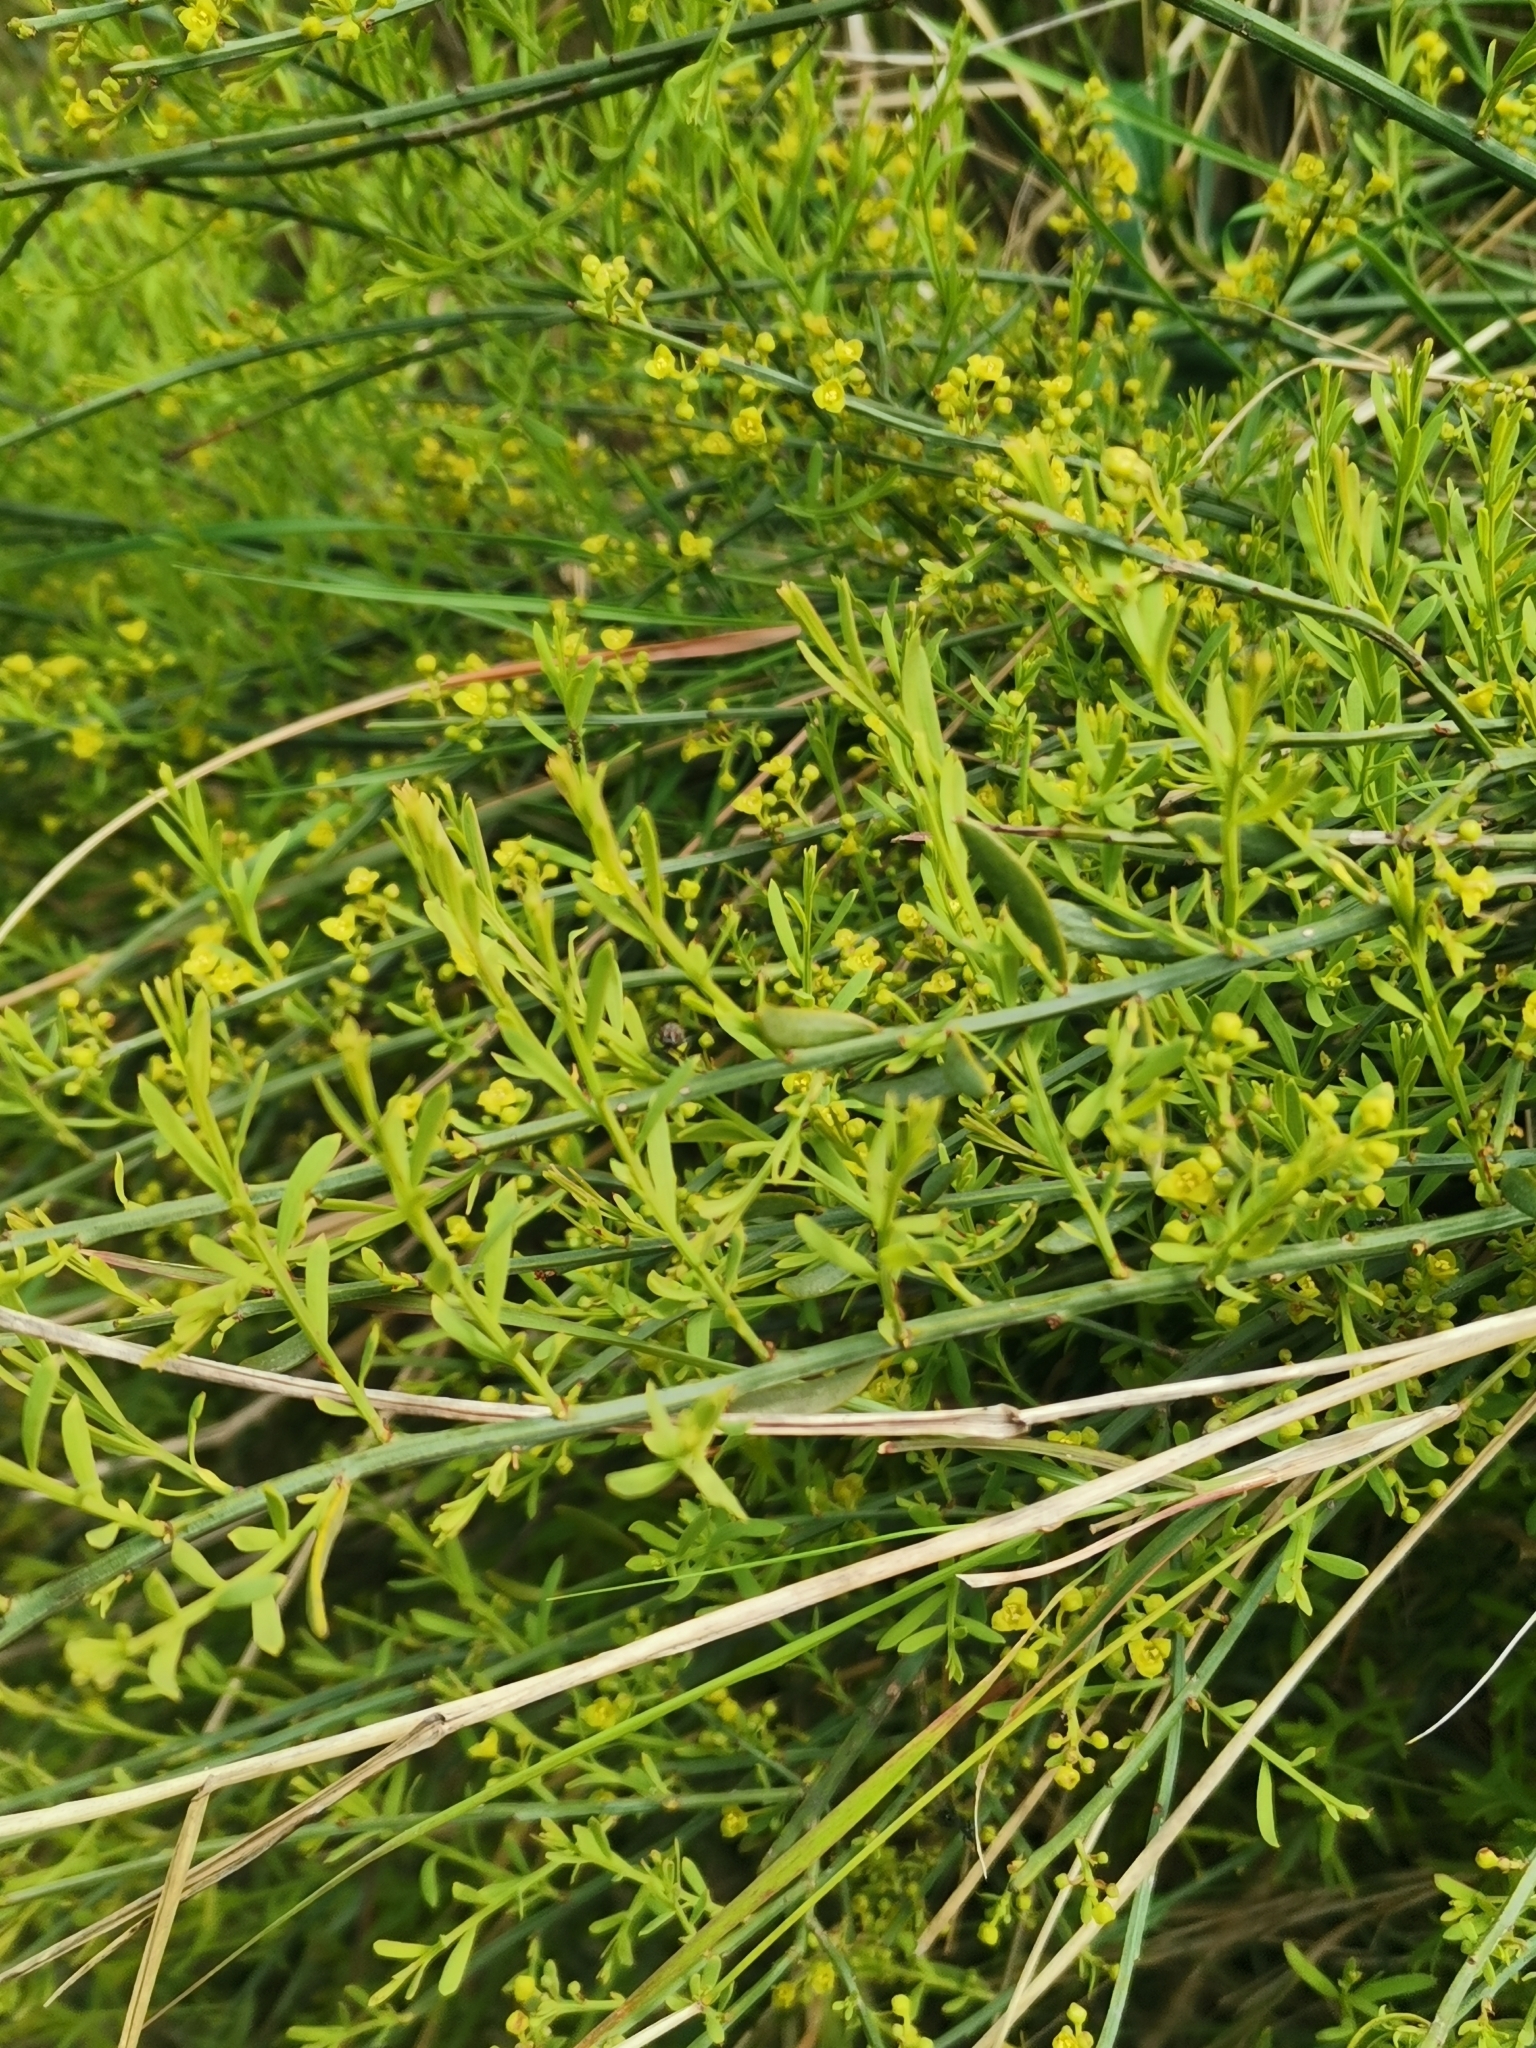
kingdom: Plantae
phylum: Tracheophyta
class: Magnoliopsida
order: Santalales
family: Santalaceae
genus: Osyris
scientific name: Osyris alba
